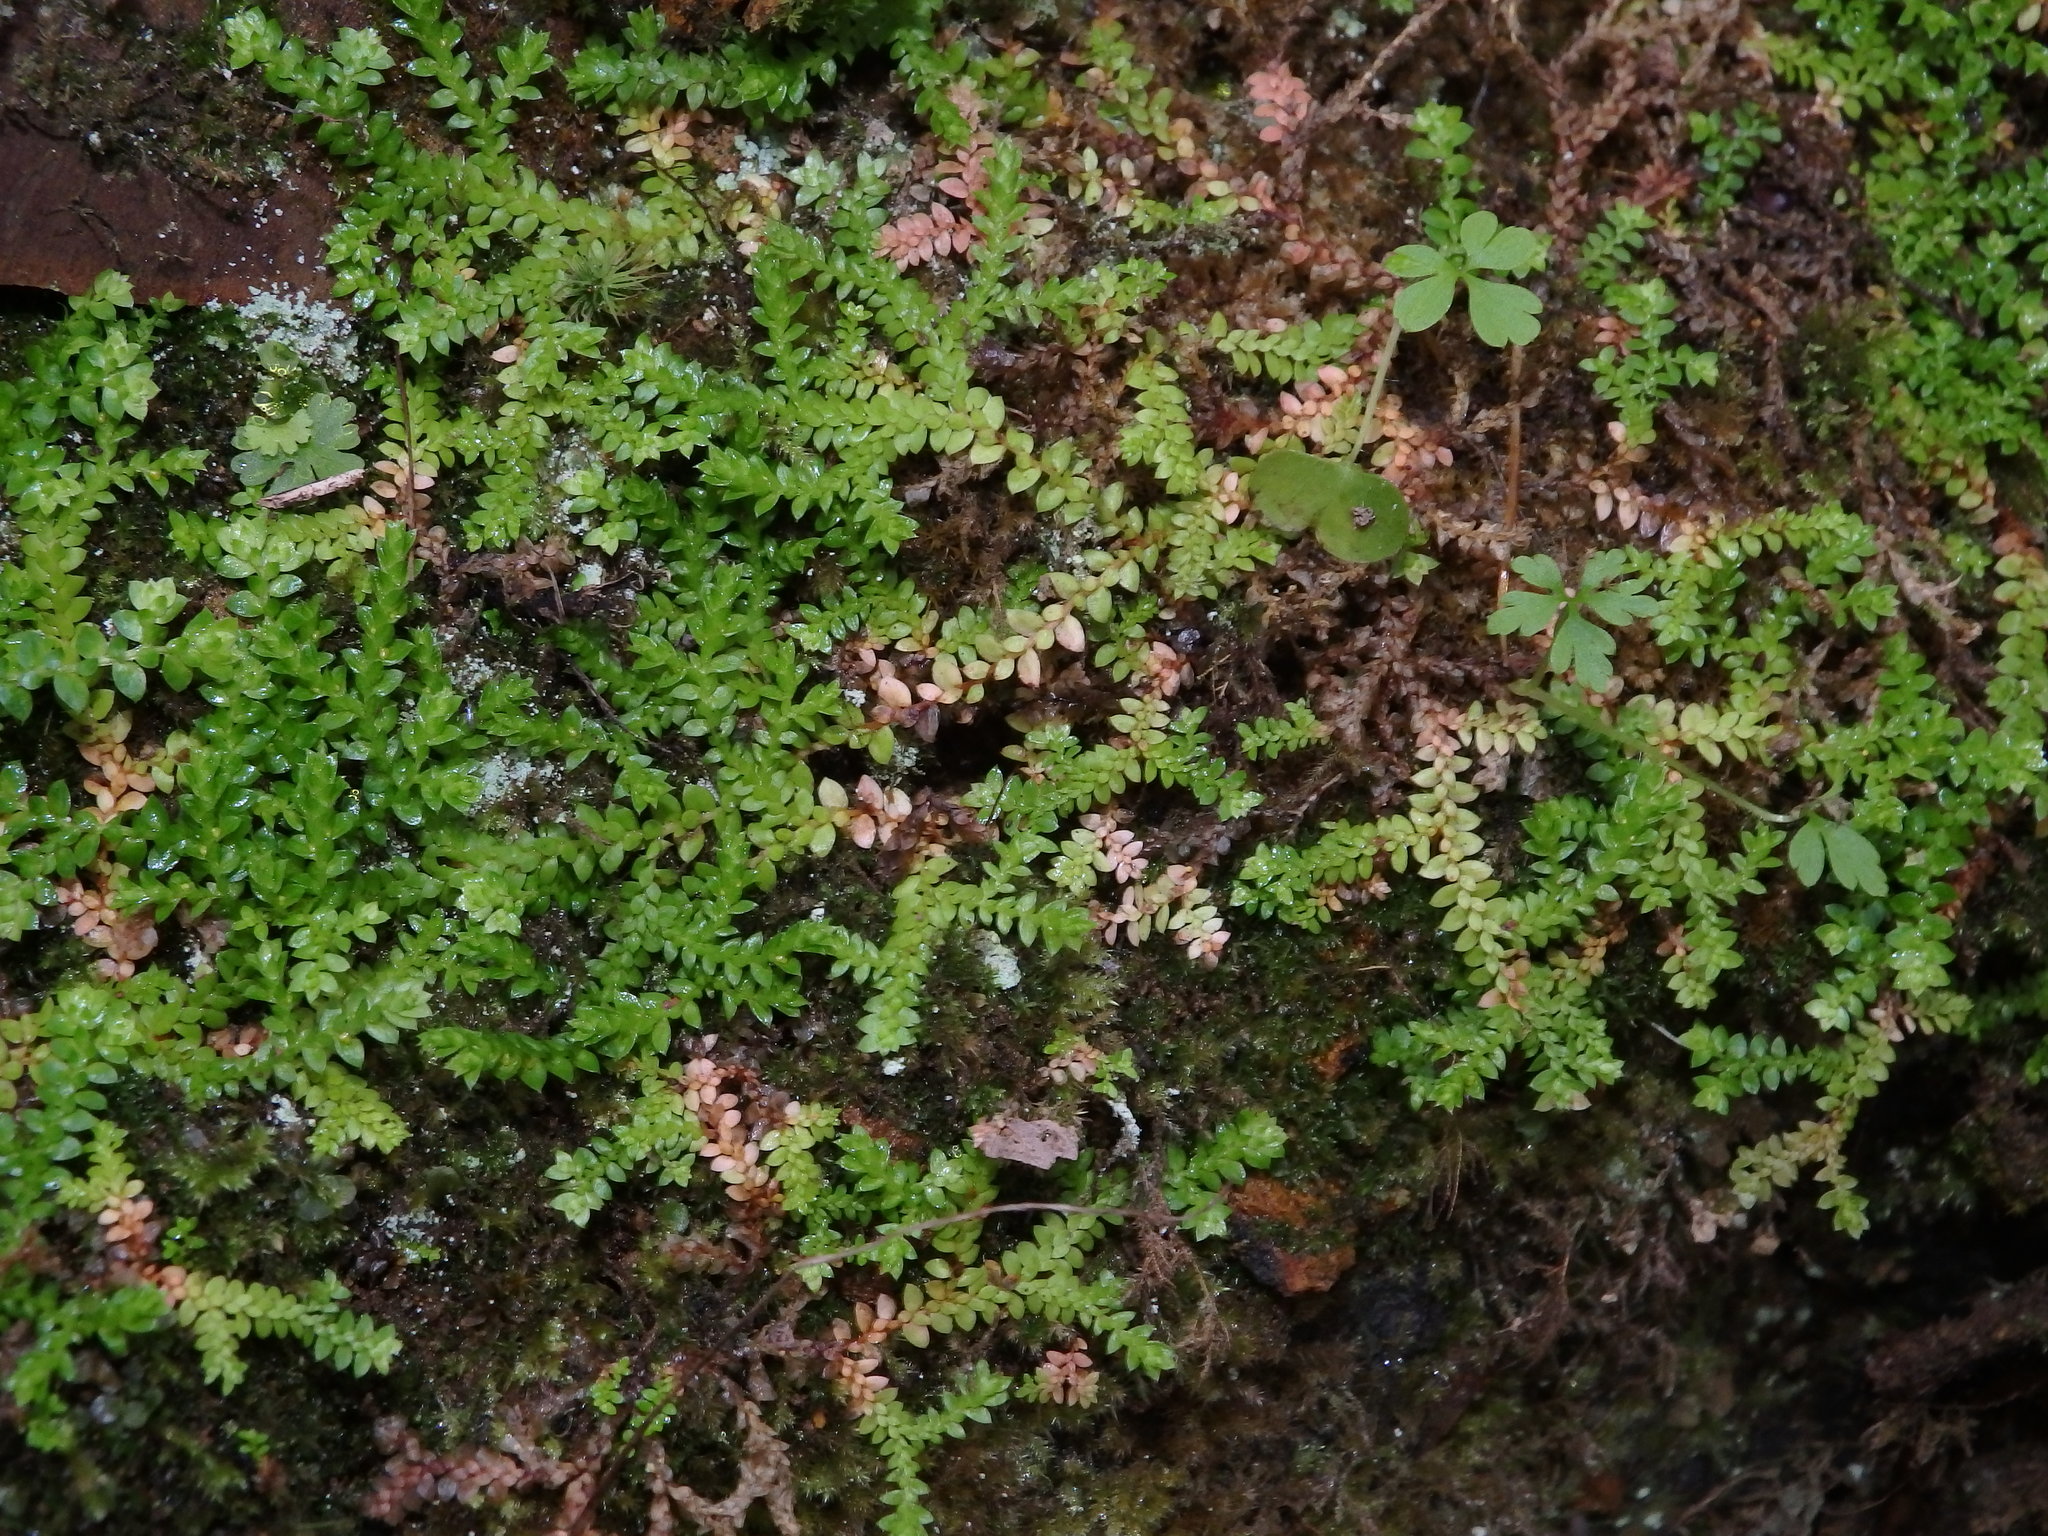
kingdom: Plantae
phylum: Tracheophyta
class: Lycopodiopsida
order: Selaginellales
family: Selaginellaceae
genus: Selaginella
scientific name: Selaginella denticulata
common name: Toothed-leaved clubmoss
